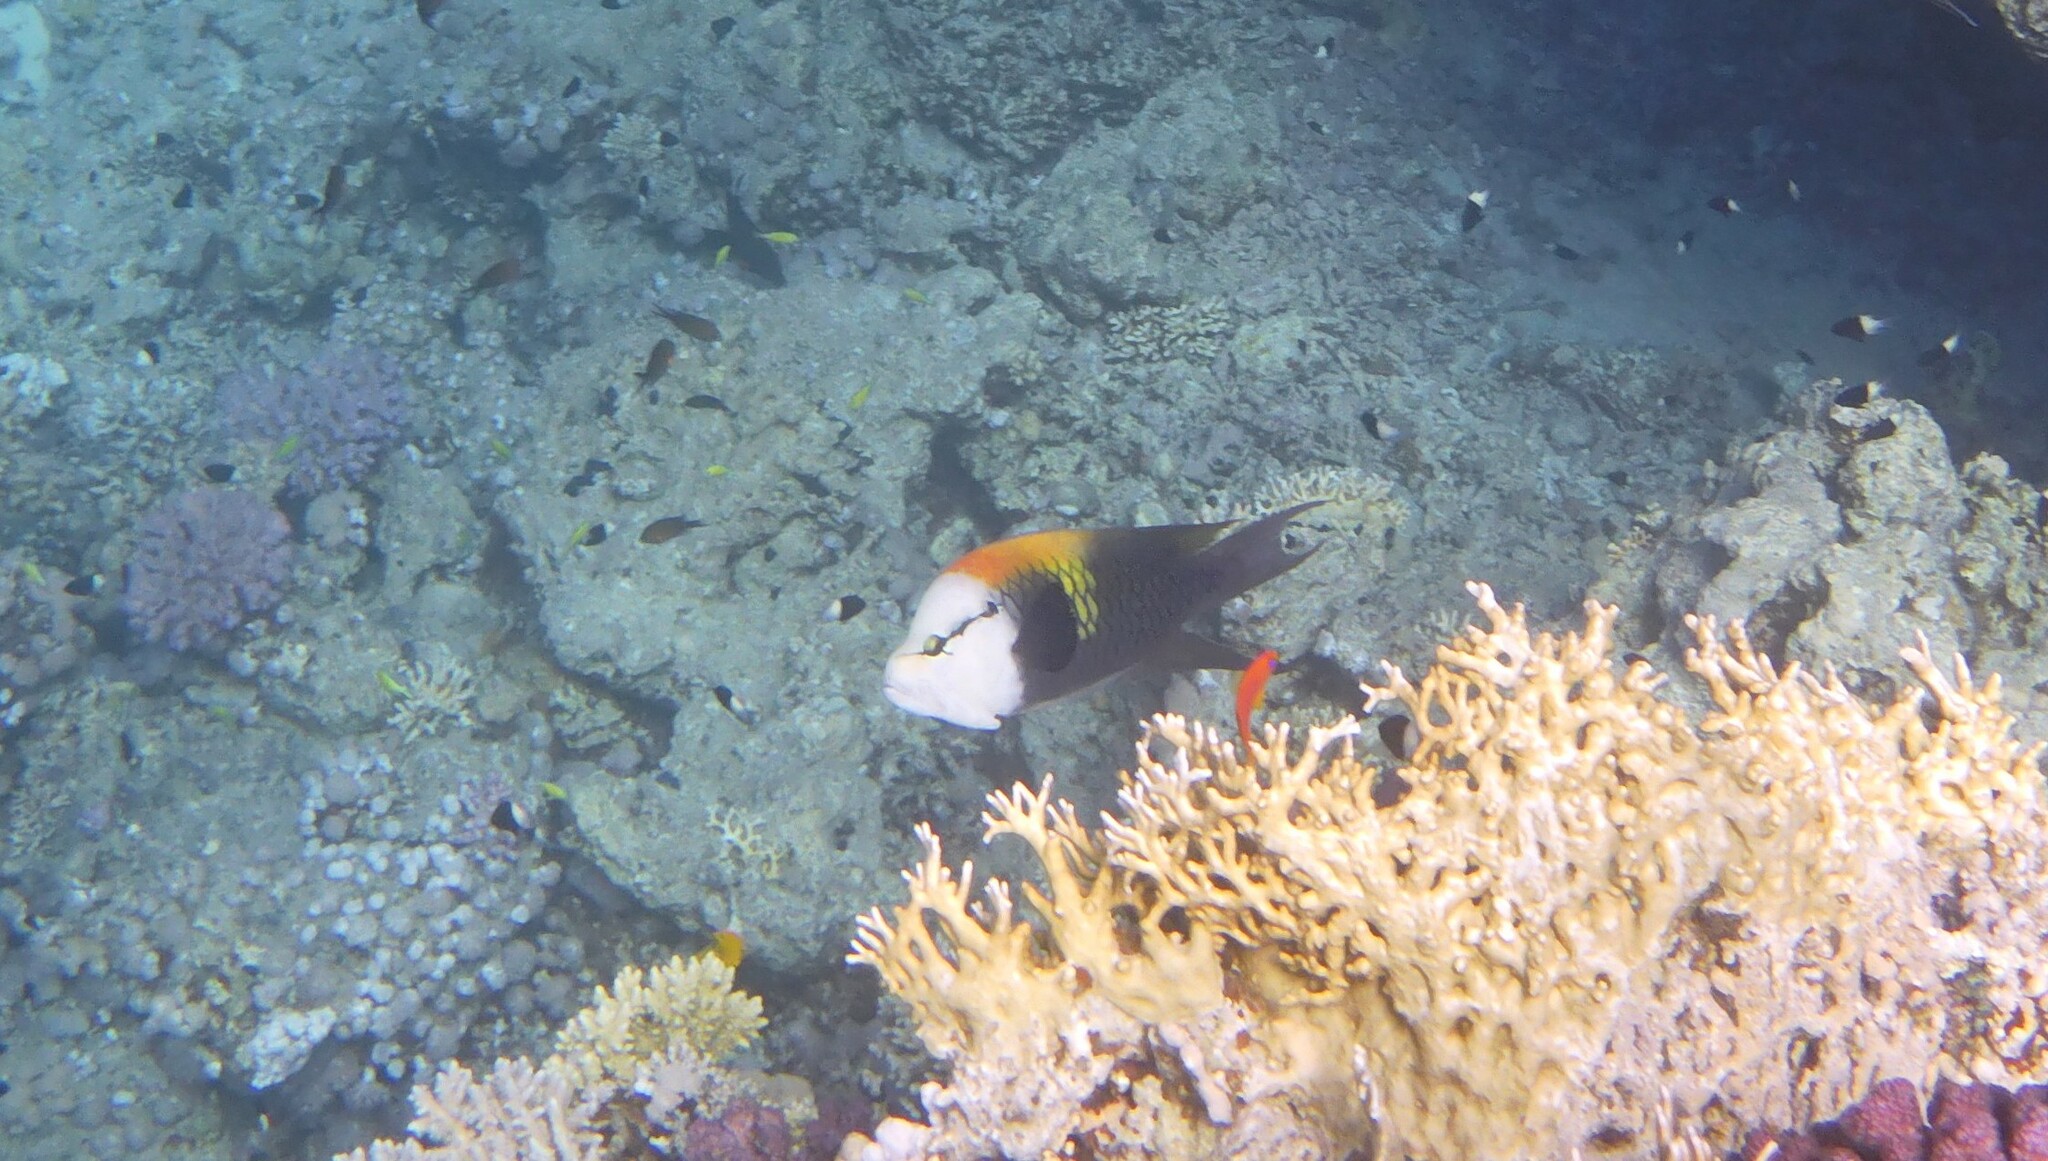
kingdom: Animalia
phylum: Chordata
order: Perciformes
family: Labridae
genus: Epibulus
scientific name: Epibulus insidiator
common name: Slingjaw wrasse
